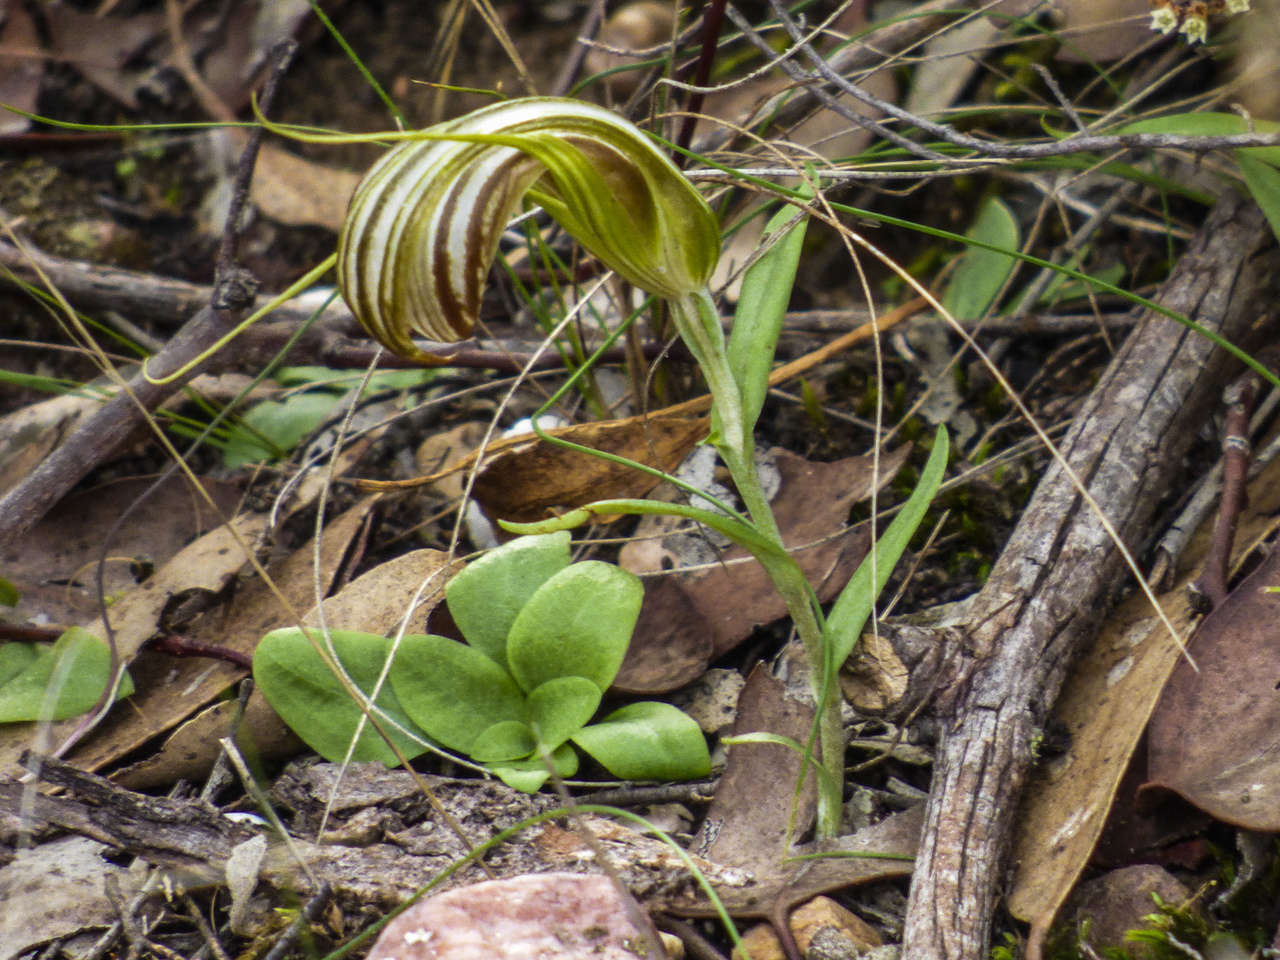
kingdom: Plantae
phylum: Tracheophyta
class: Liliopsida
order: Asparagales
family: Orchidaceae
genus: Pterostylis
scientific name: Pterostylis truncata
